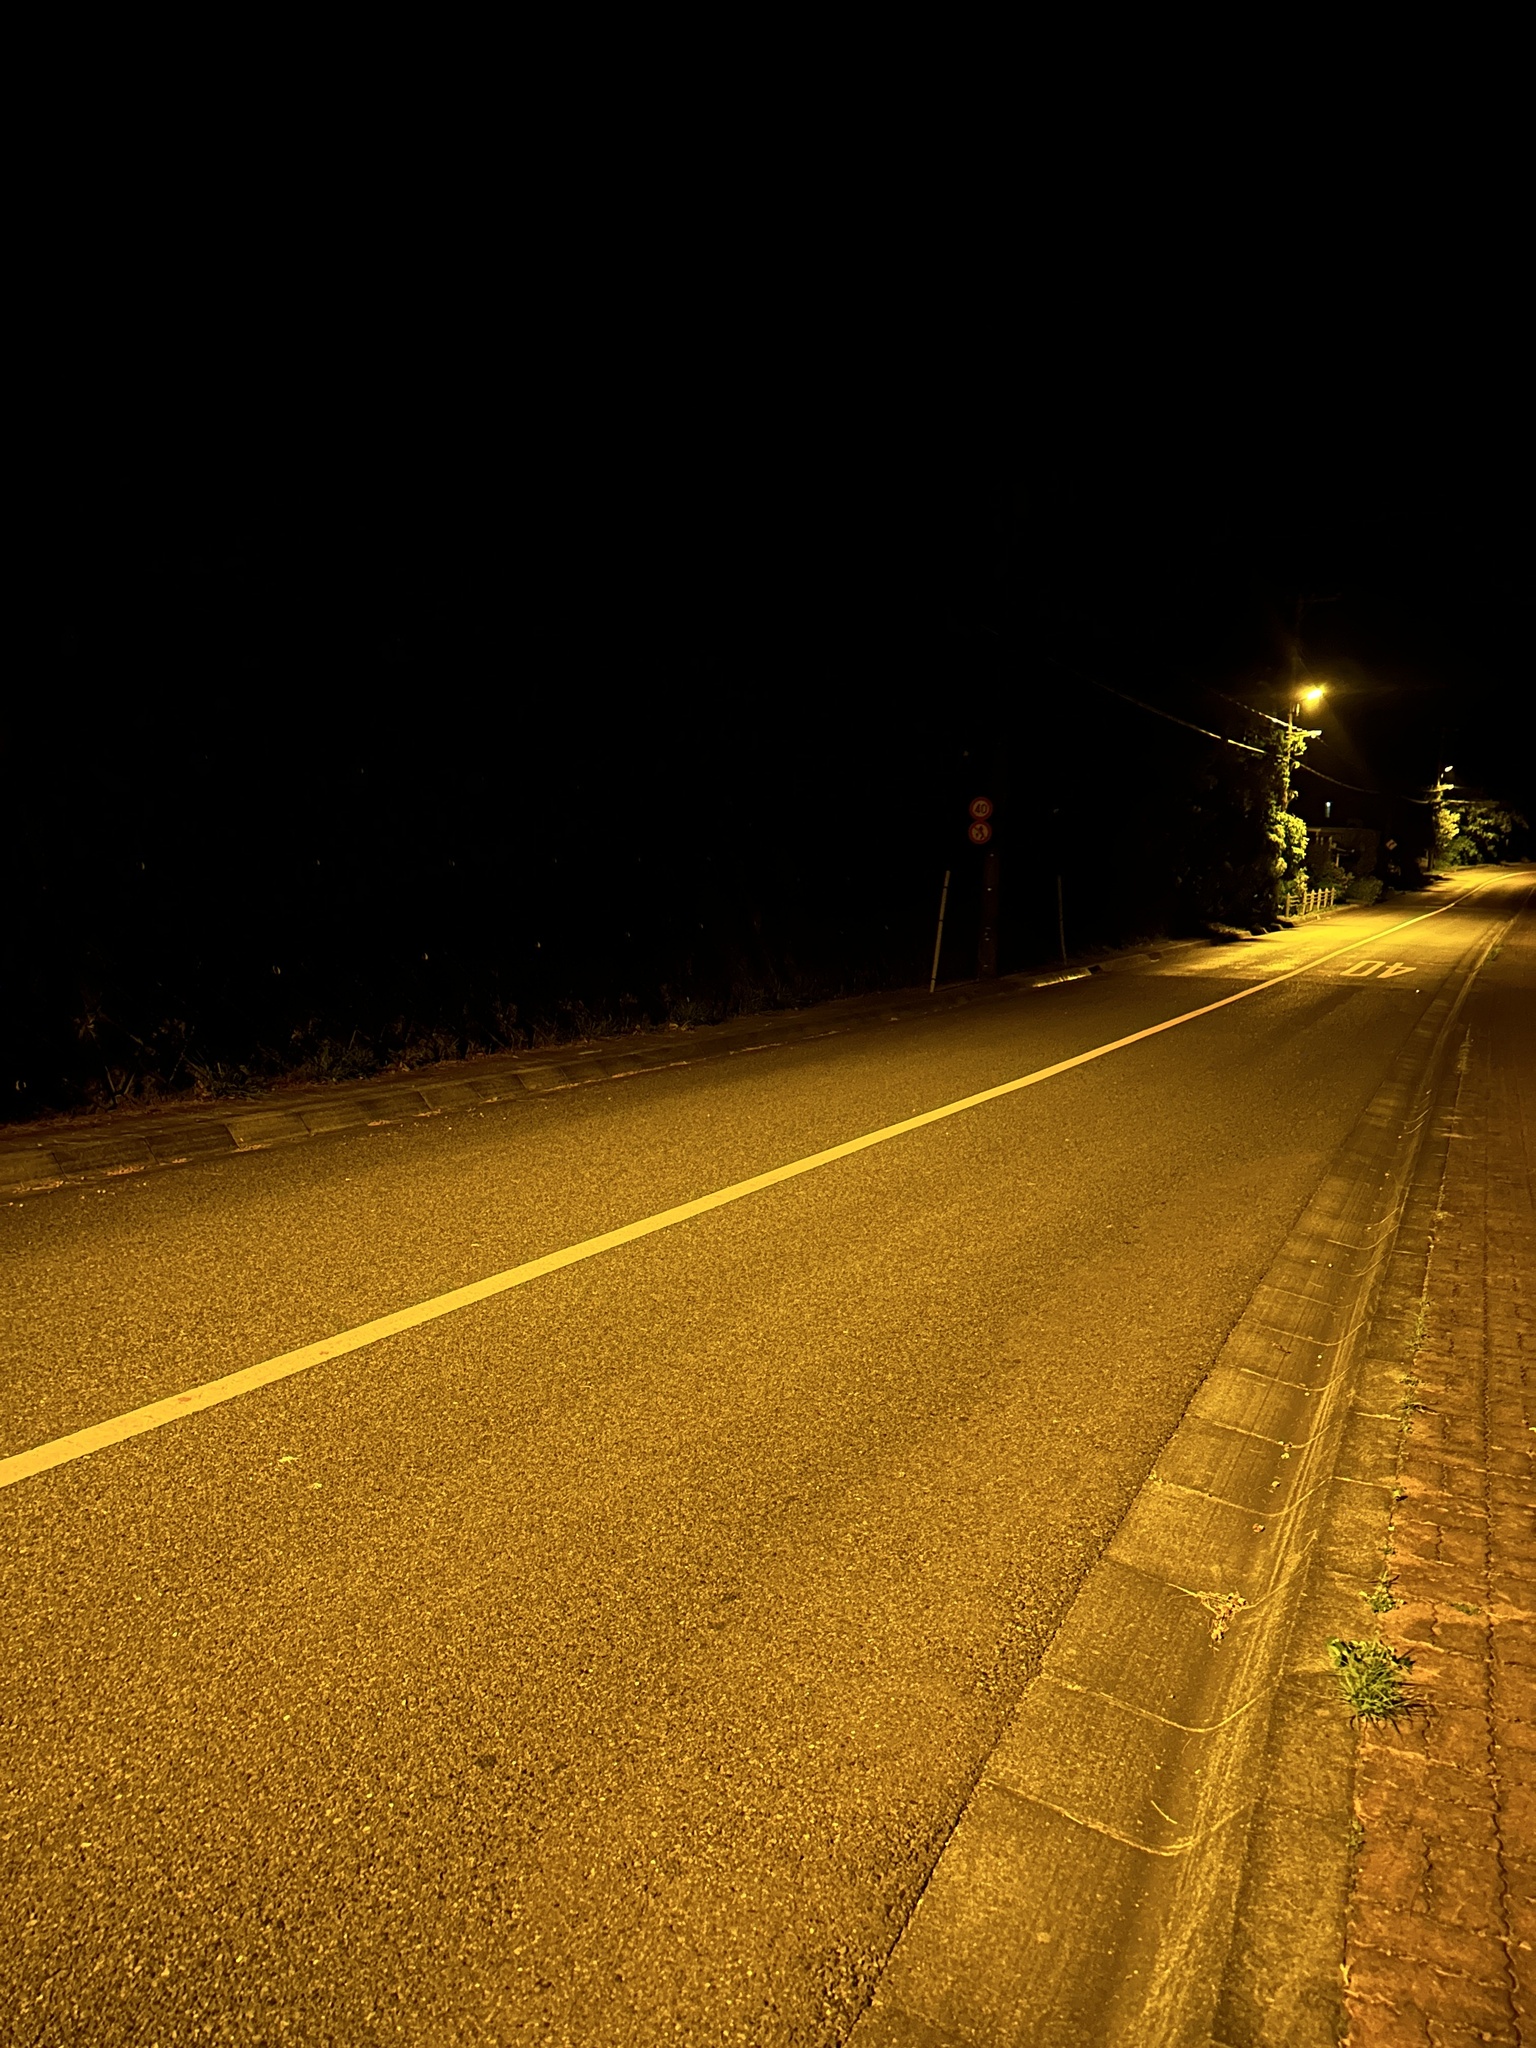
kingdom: Animalia
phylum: Arthropoda
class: Insecta
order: Orthoptera
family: Gryllidae
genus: Gryllodes
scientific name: Gryllodes sigillatus
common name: Tropical house cricket
